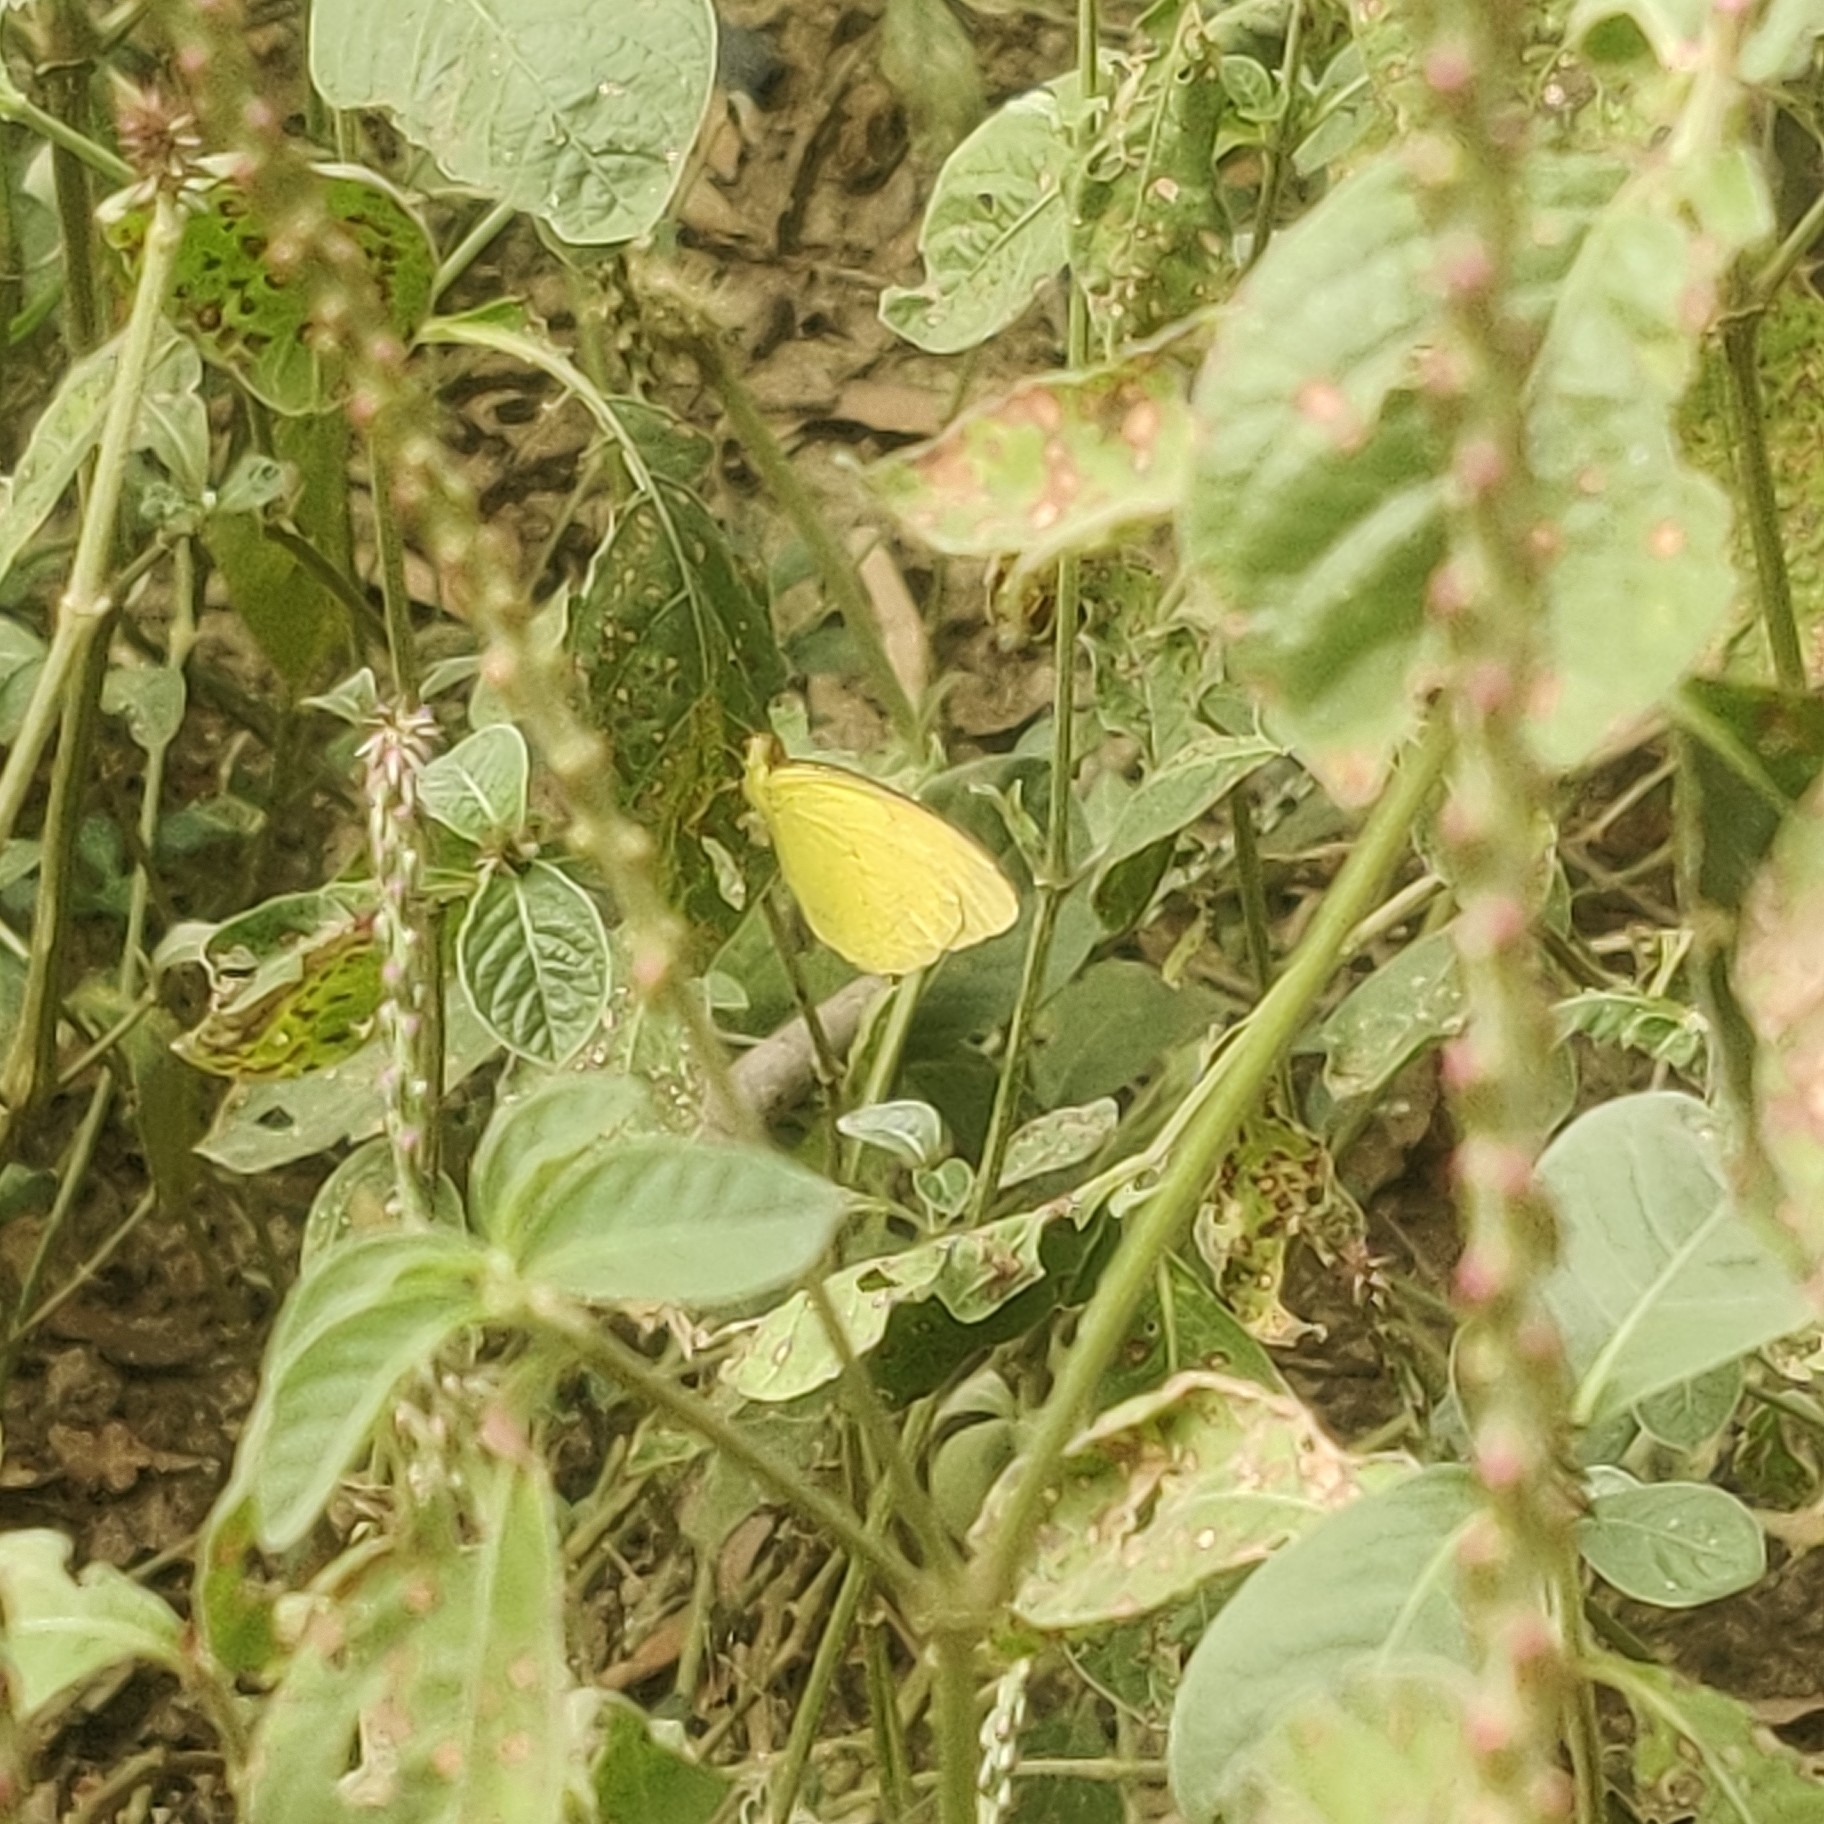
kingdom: Animalia
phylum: Arthropoda
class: Insecta
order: Lepidoptera
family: Pieridae
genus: Eurema
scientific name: Eurema hecabe
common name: Pale grass yellow
